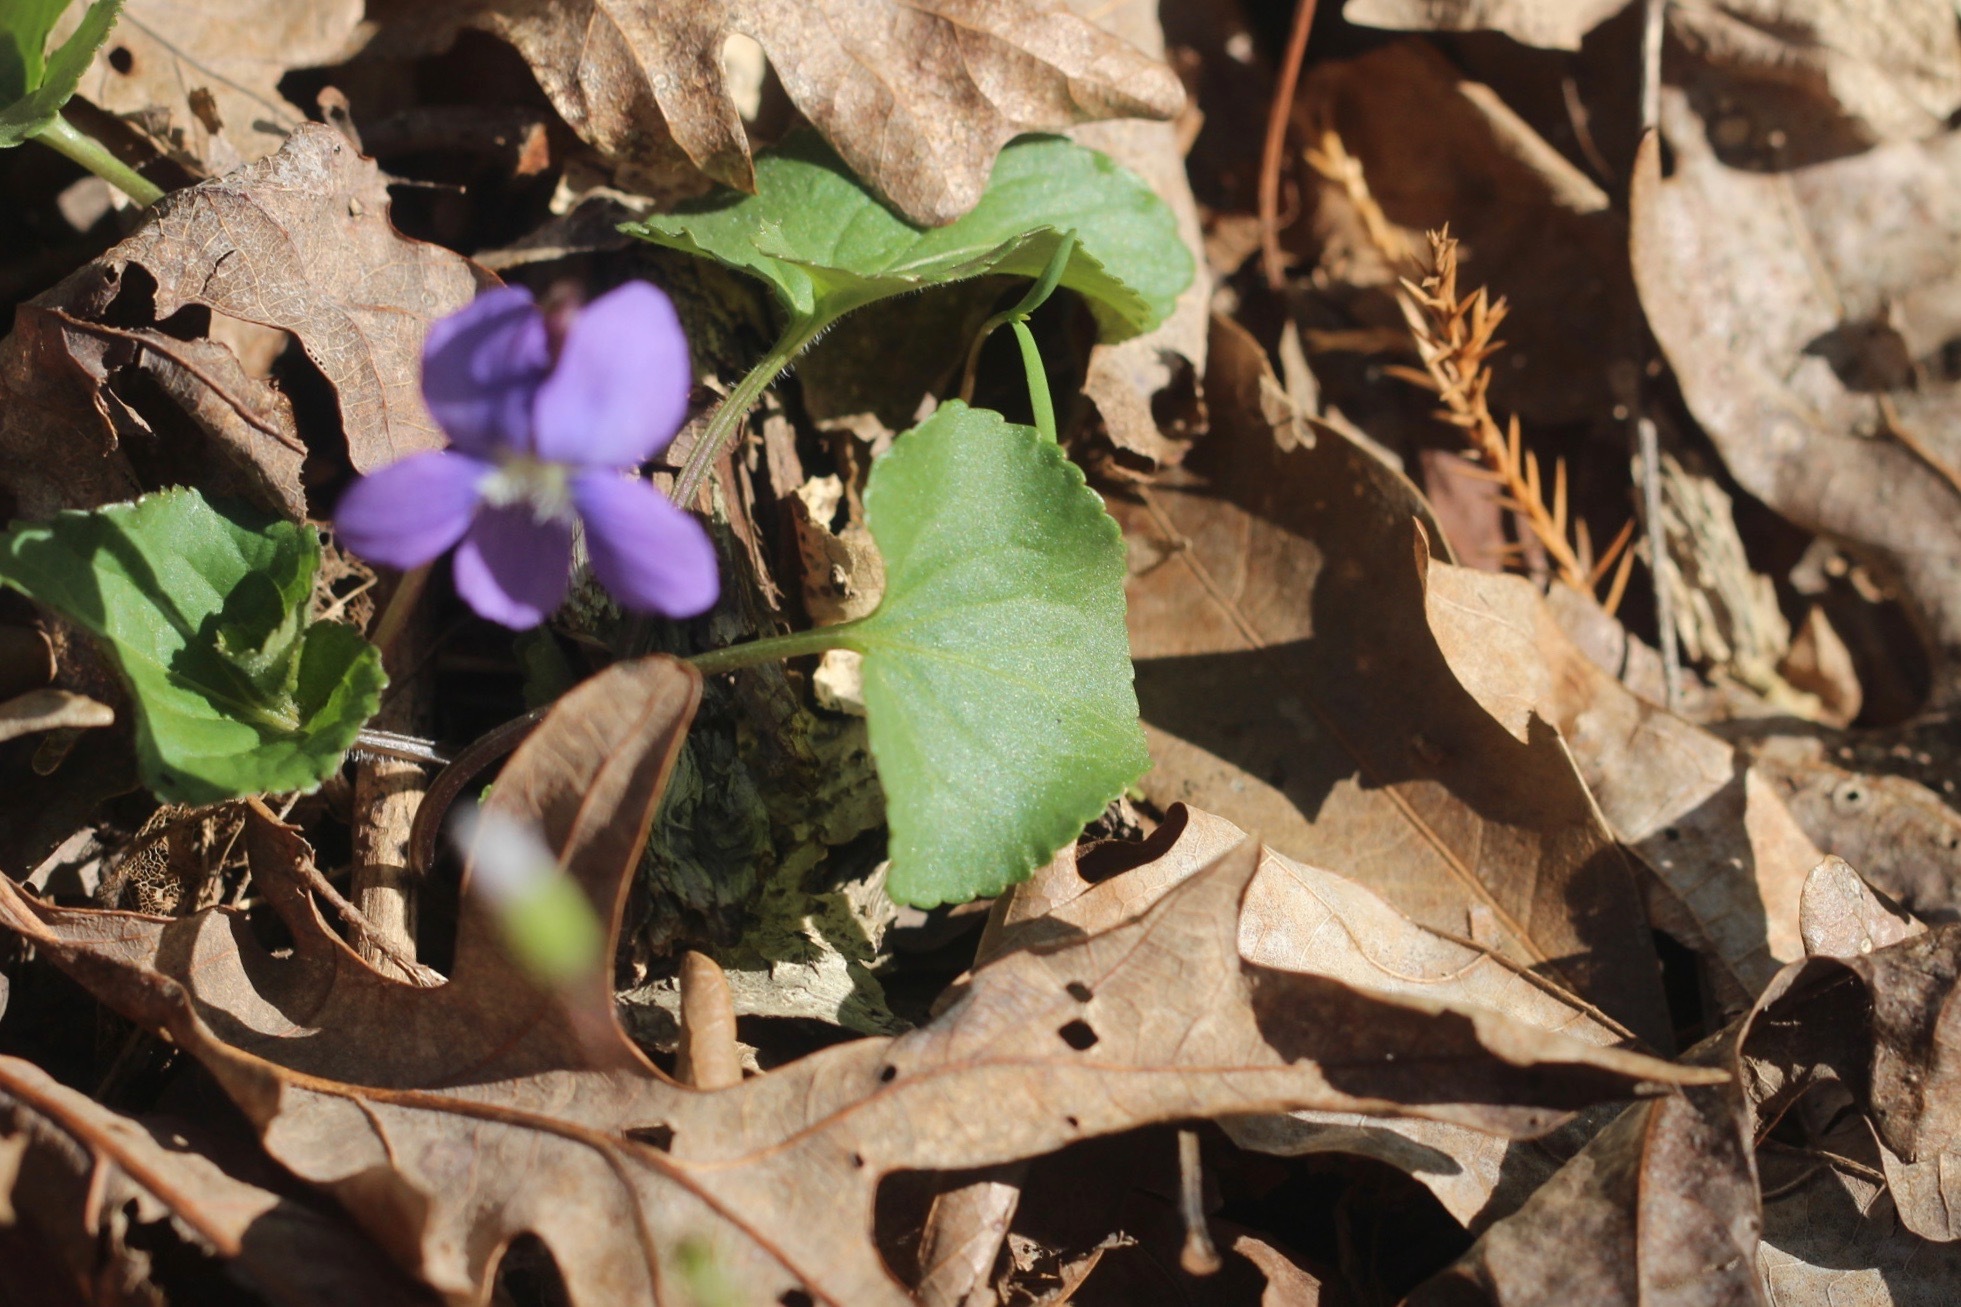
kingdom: Plantae
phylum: Tracheophyta
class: Magnoliopsida
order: Malpighiales
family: Violaceae
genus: Viola
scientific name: Viola sororia
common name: Dooryard violet
